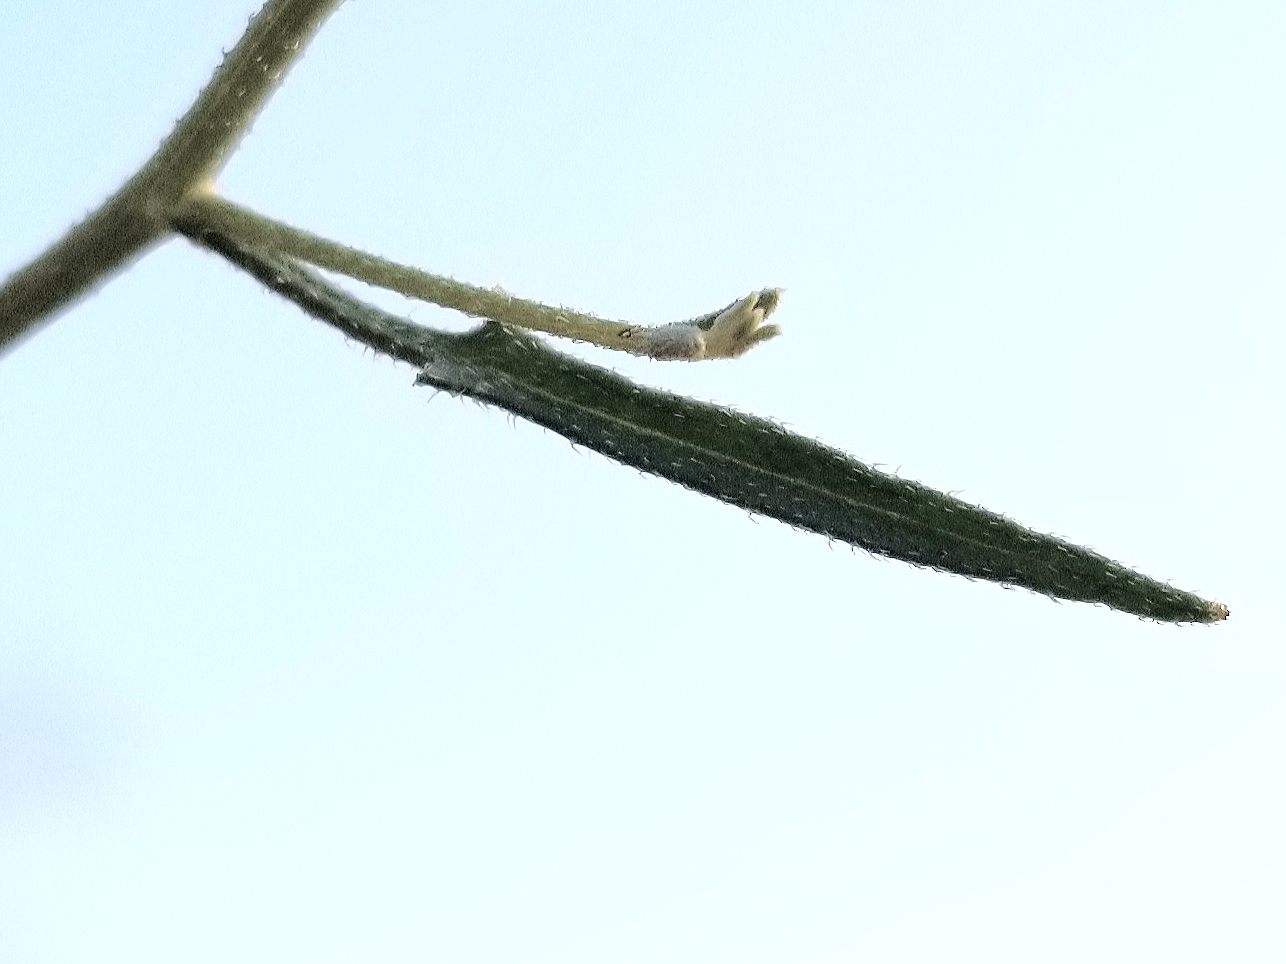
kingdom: Plantae
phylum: Tracheophyta
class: Magnoliopsida
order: Asterales
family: Asteraceae
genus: Bebbia
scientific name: Bebbia juncea
